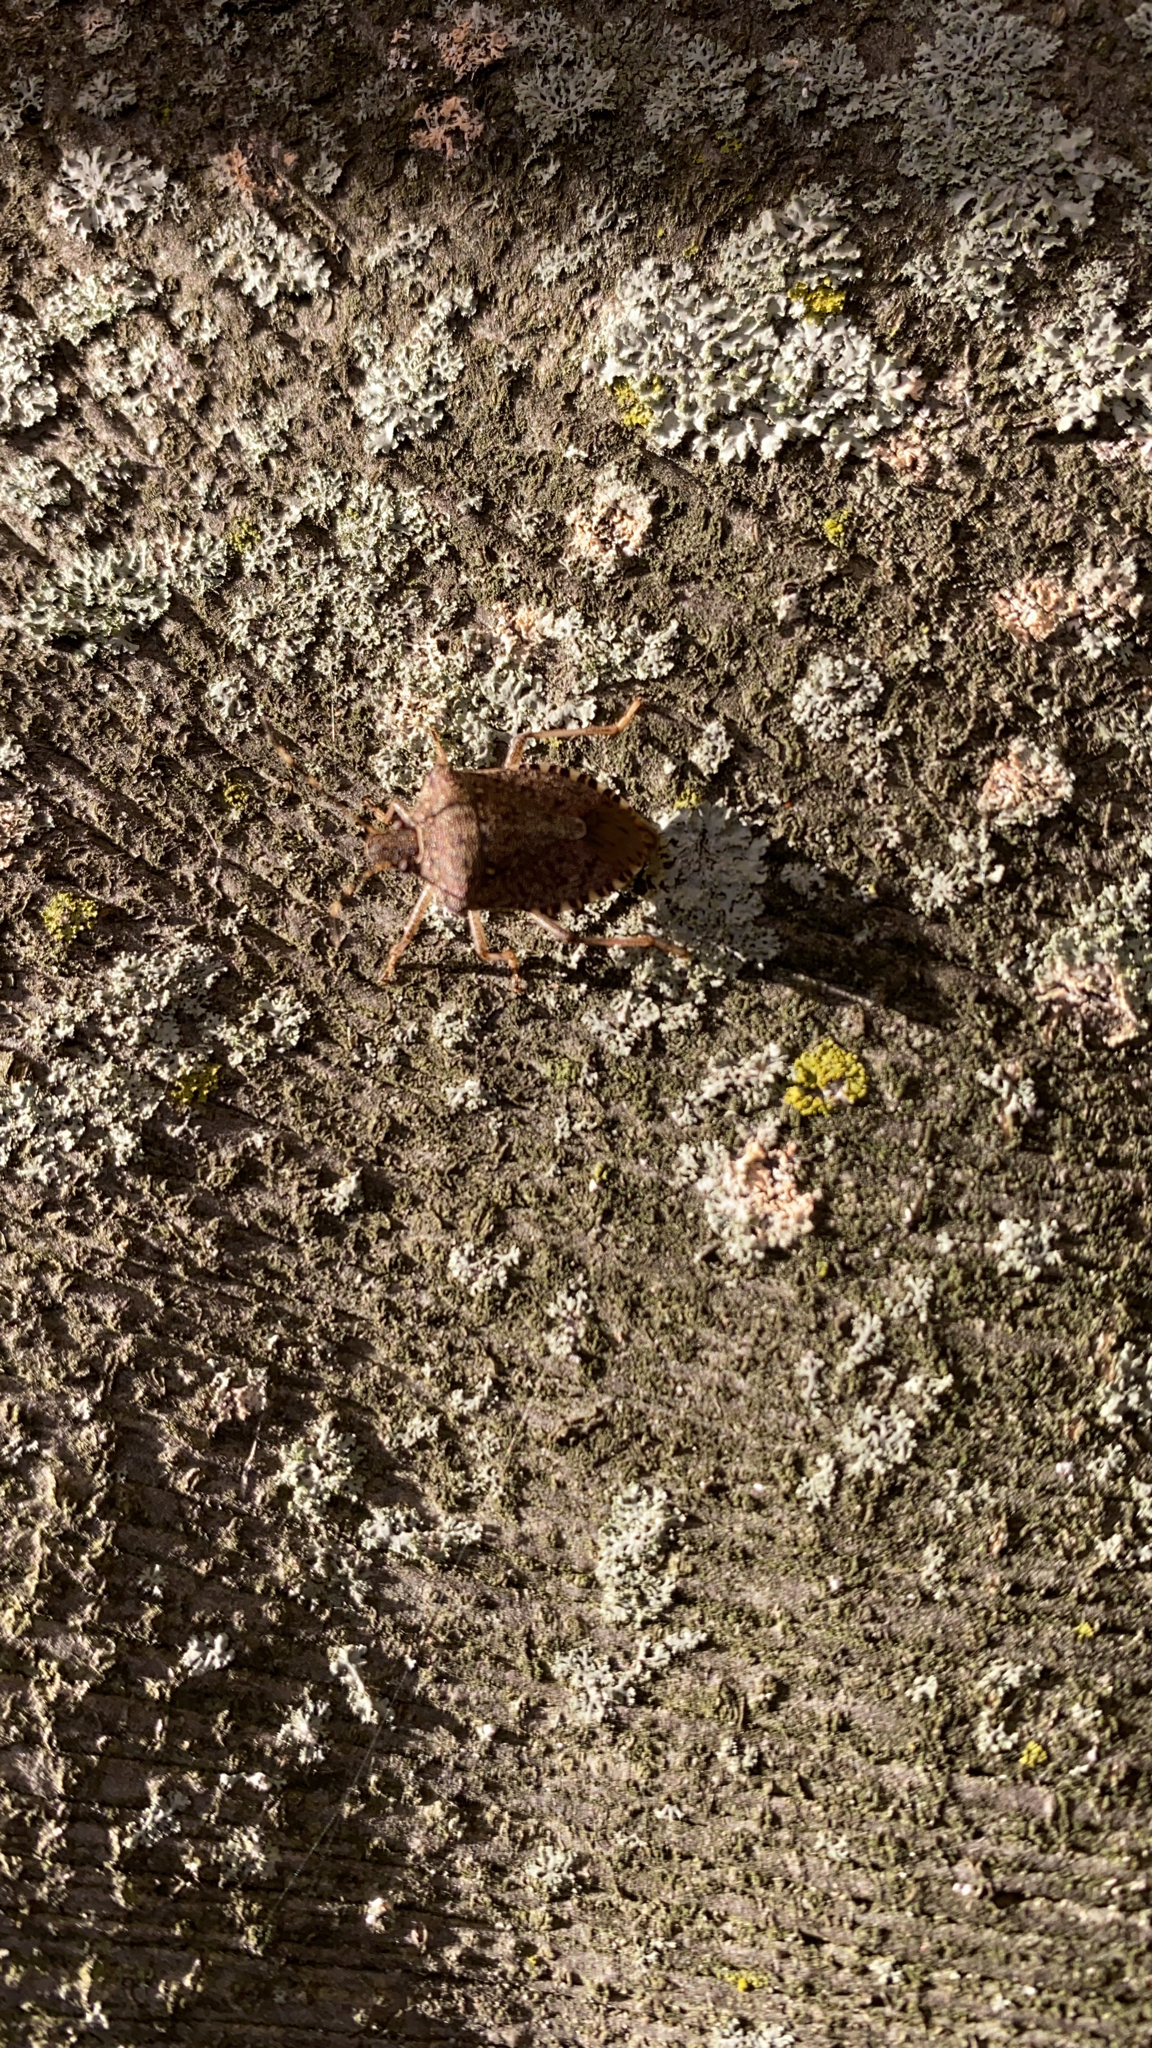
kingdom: Animalia
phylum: Arthropoda
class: Insecta
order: Hemiptera
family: Pentatomidae
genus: Halyomorpha
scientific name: Halyomorpha halys
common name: Brown marmorated stink bug
